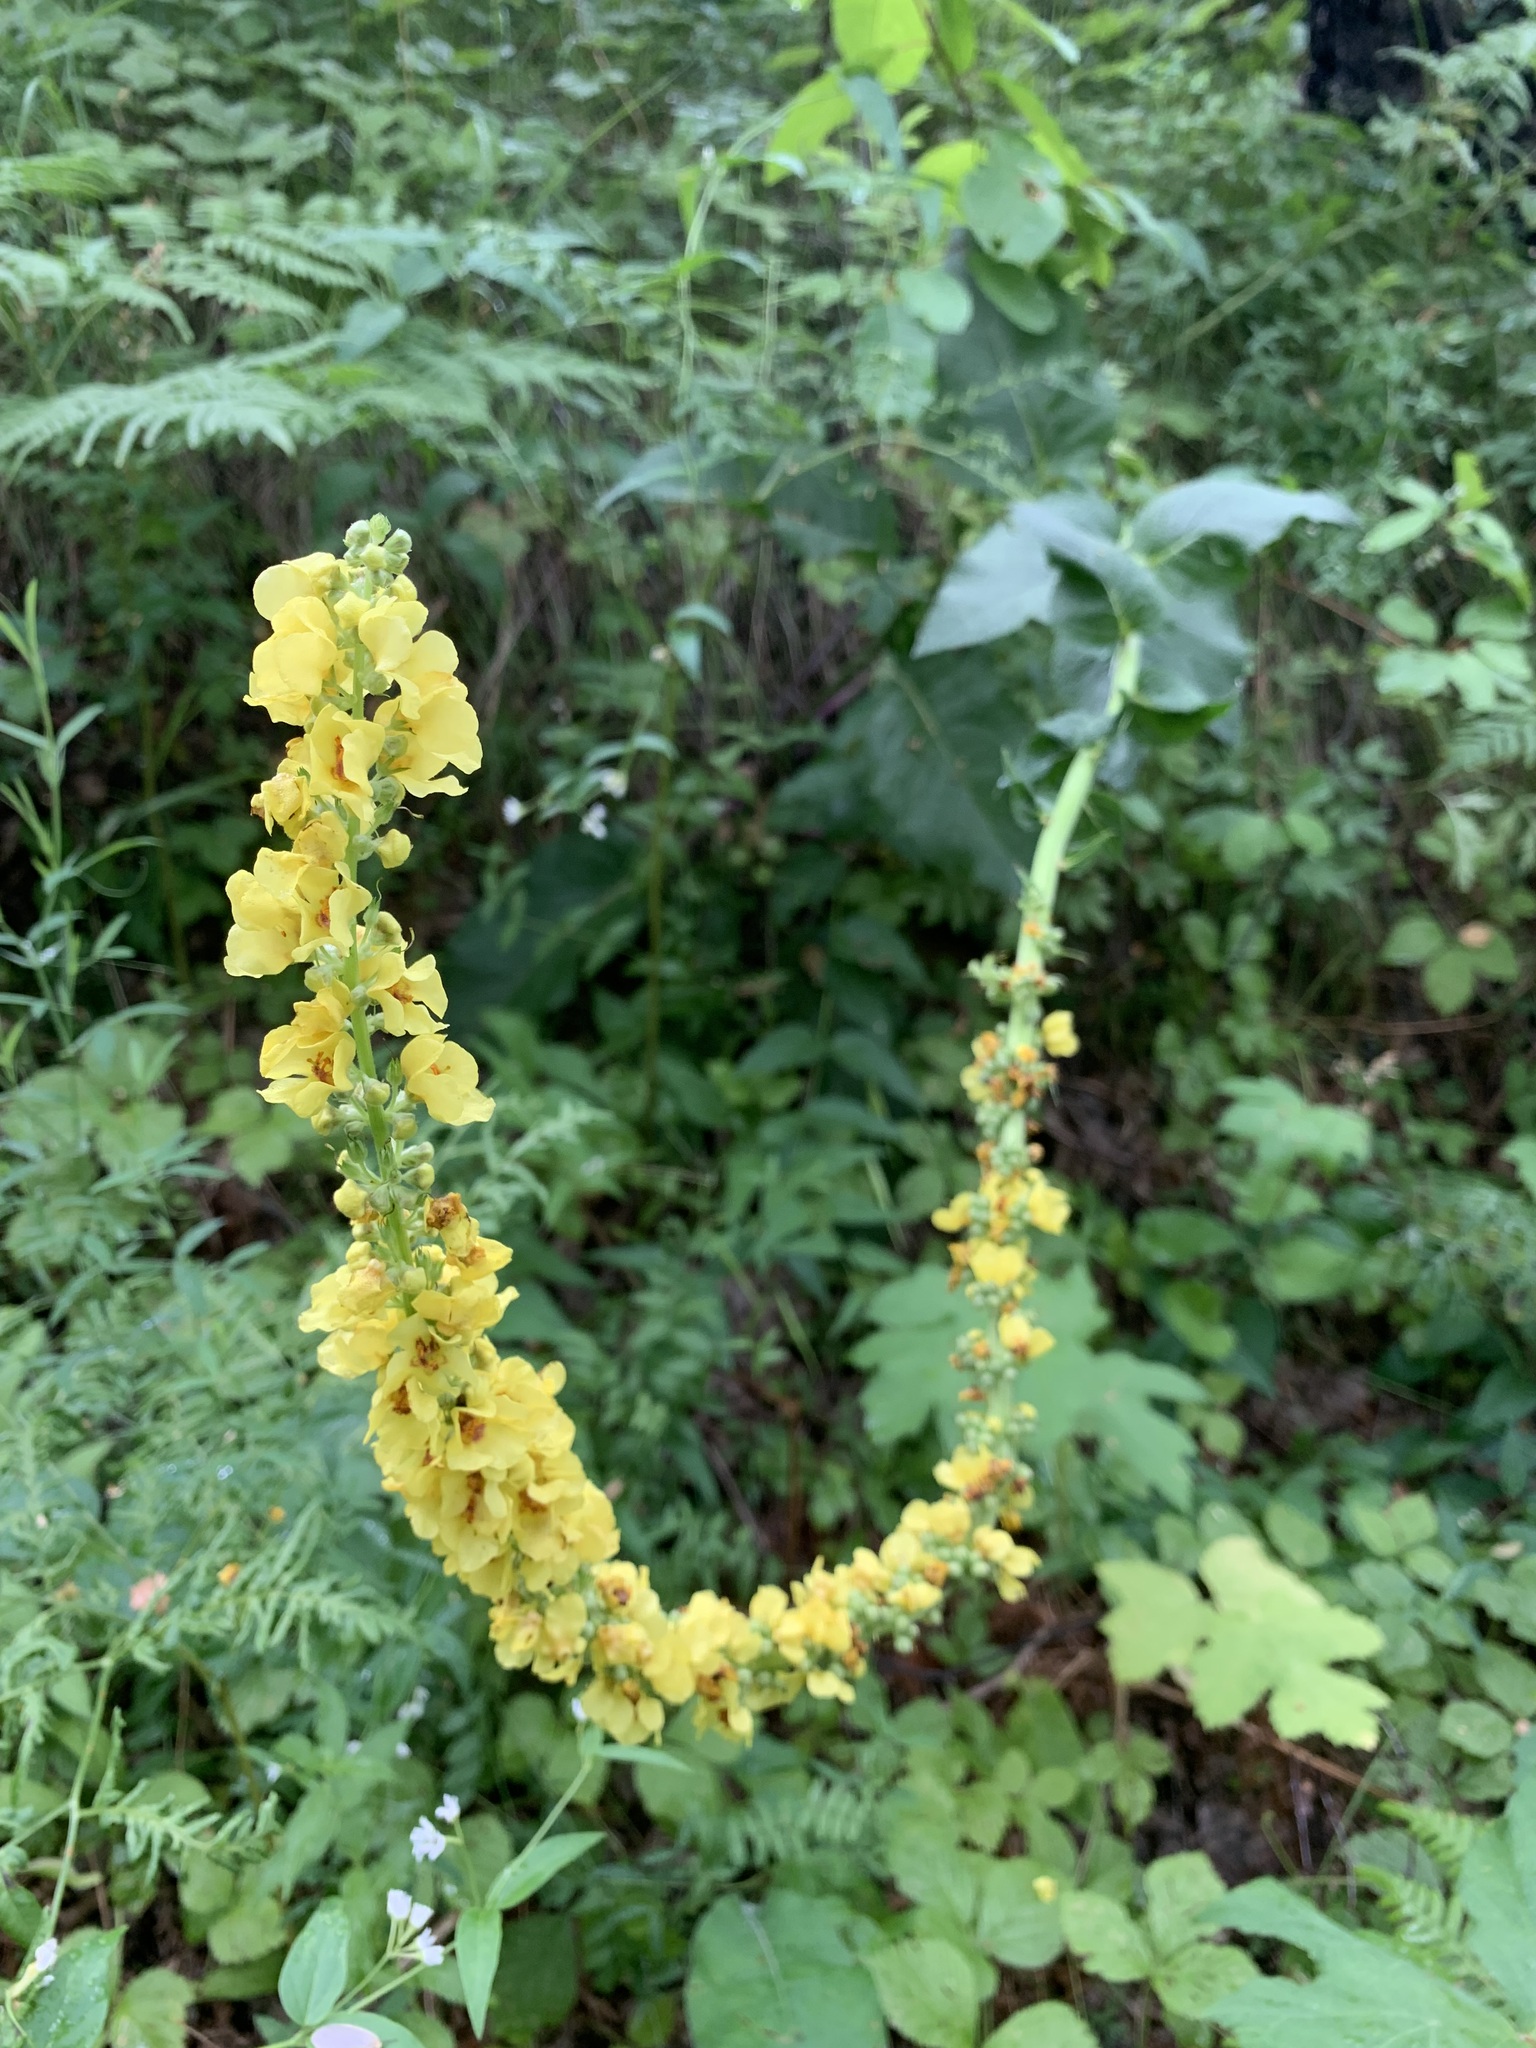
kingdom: Plantae
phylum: Tracheophyta
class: Magnoliopsida
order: Lamiales
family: Scrophulariaceae
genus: Verbascum
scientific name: Verbascum nigrum
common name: Dark mullein
